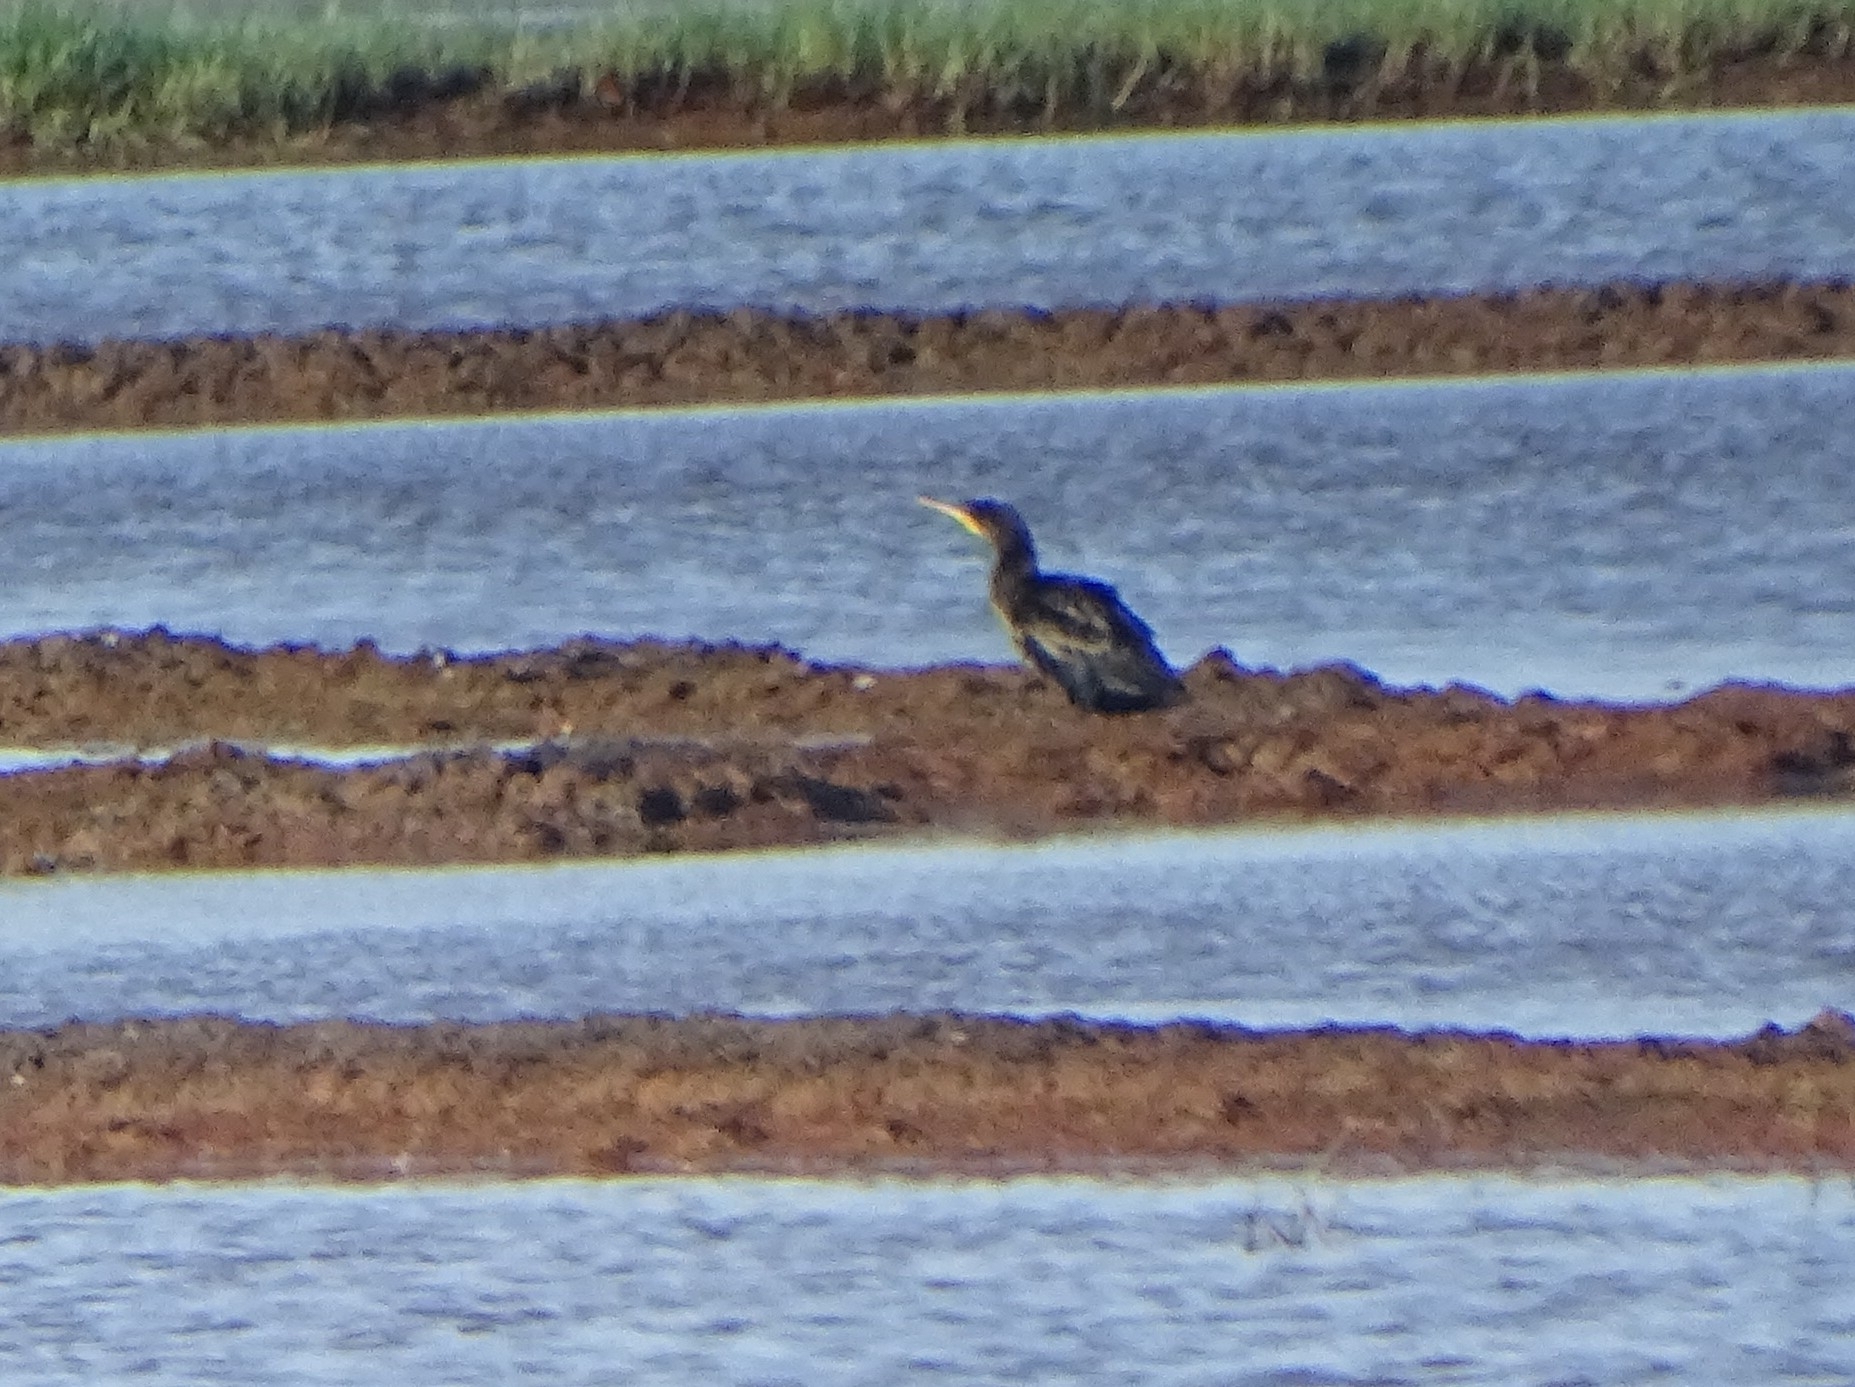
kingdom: Animalia
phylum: Chordata
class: Aves
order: Suliformes
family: Phalacrocoracidae
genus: Phalacrocorax
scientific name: Phalacrocorax fuscicollis
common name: Indian cormorant
